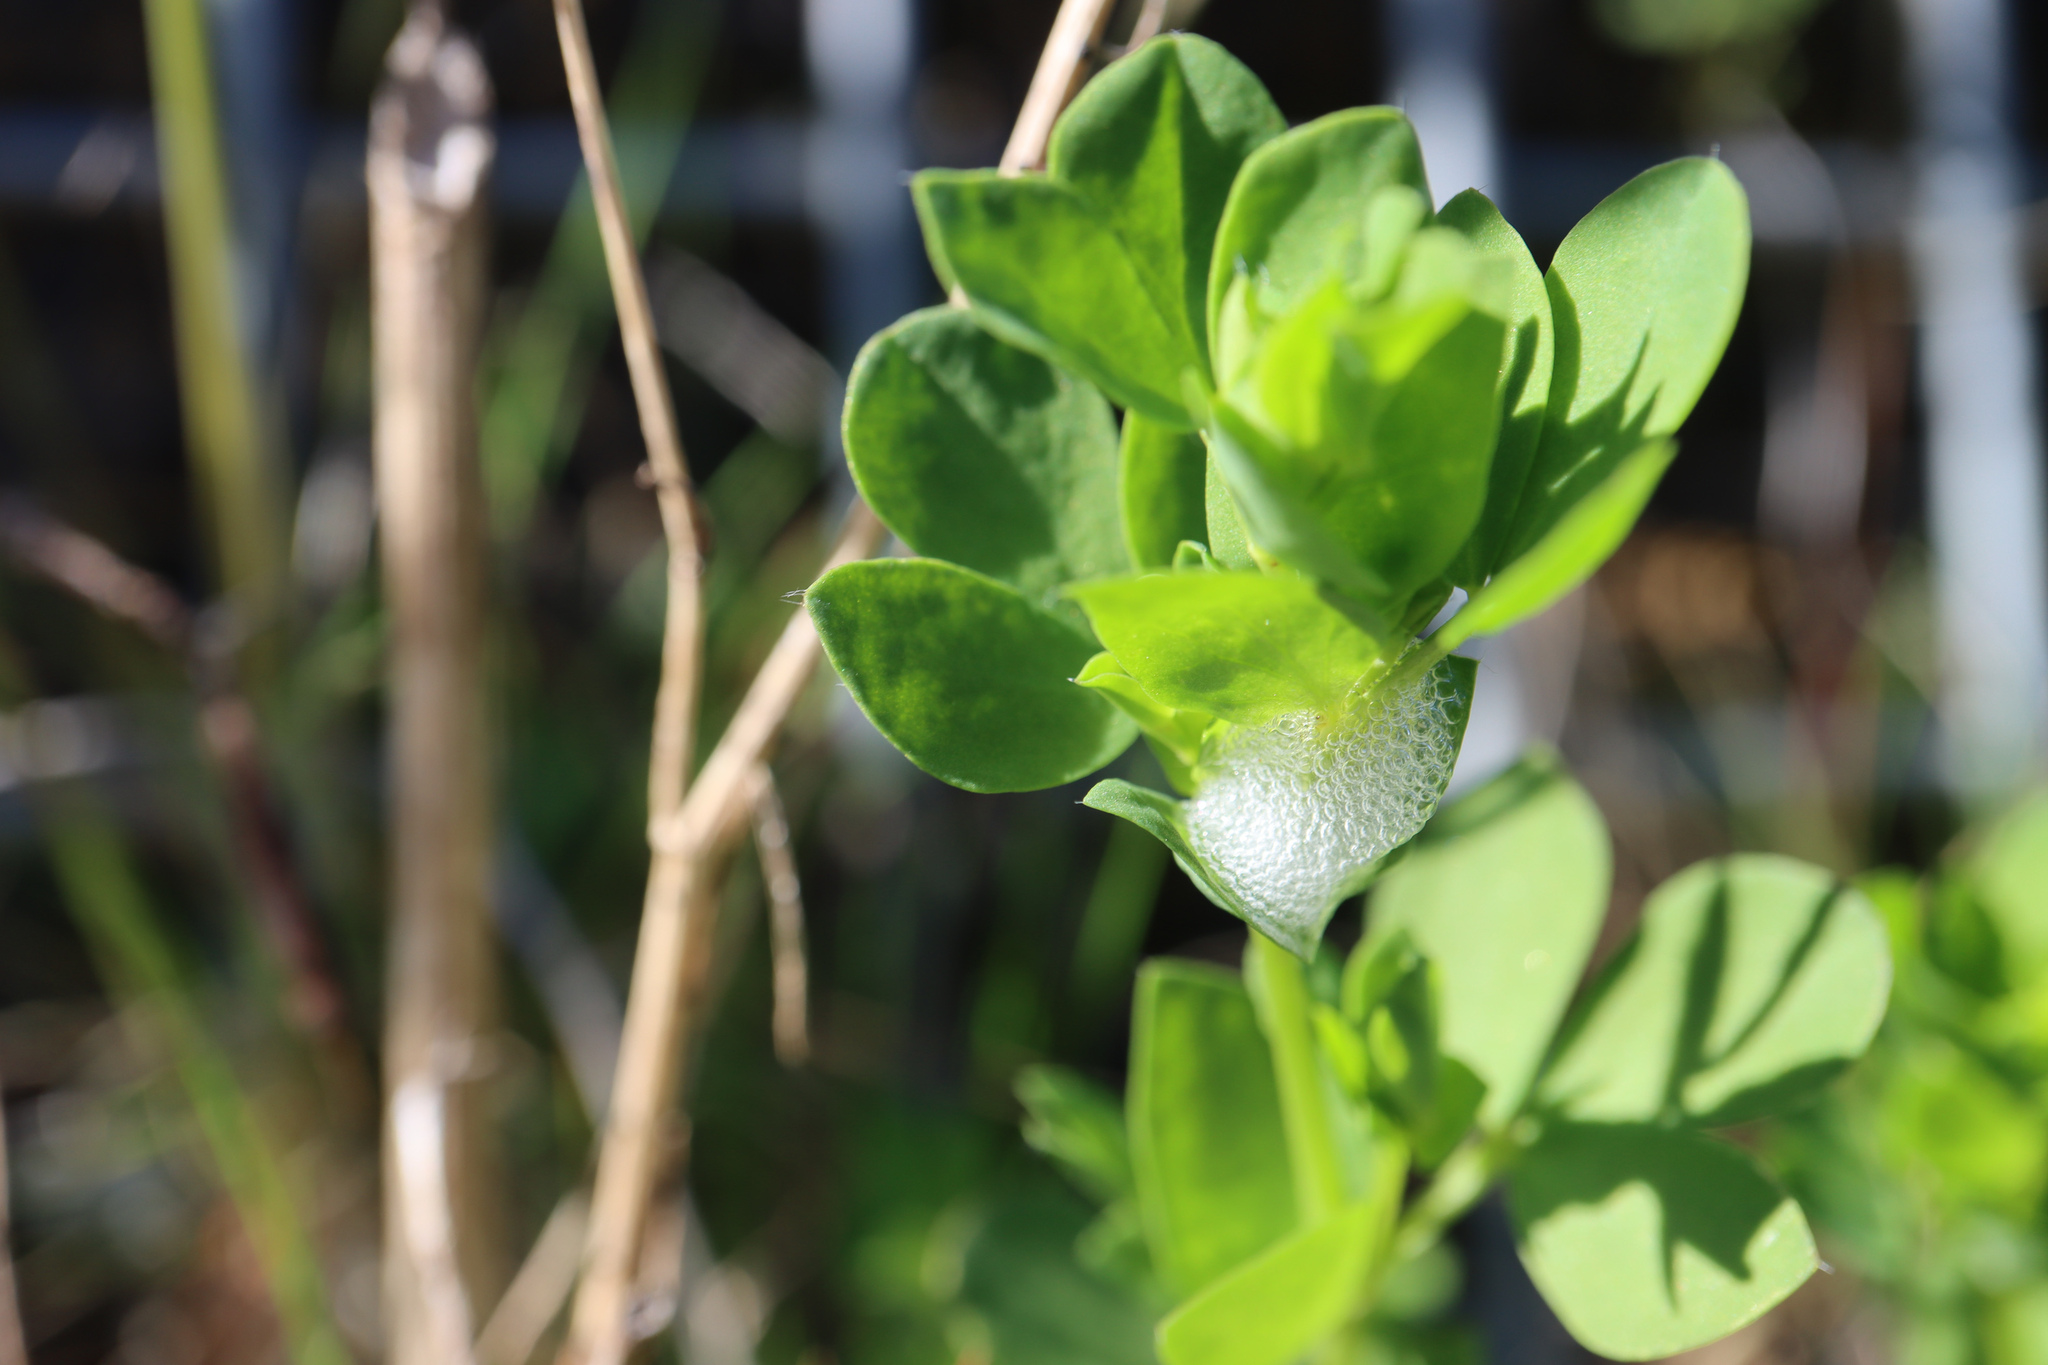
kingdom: Animalia
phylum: Arthropoda
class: Insecta
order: Hemiptera
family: Aphrophoridae
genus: Philaenus
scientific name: Philaenus spumarius
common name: Meadow spittlebug
